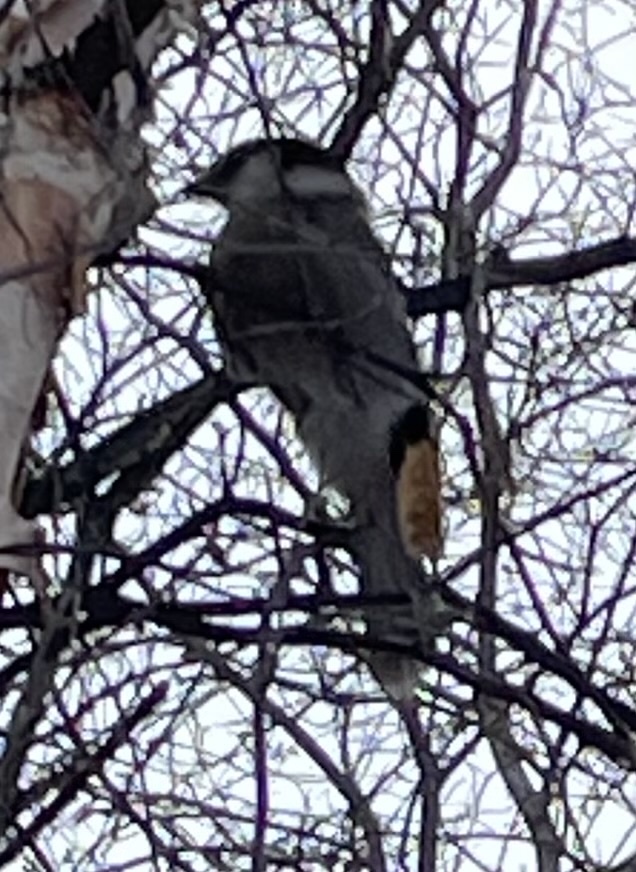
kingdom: Animalia
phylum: Chordata
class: Aves
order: Passeriformes
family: Corvidae
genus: Perisoreus
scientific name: Perisoreus canadensis
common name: Gray jay
